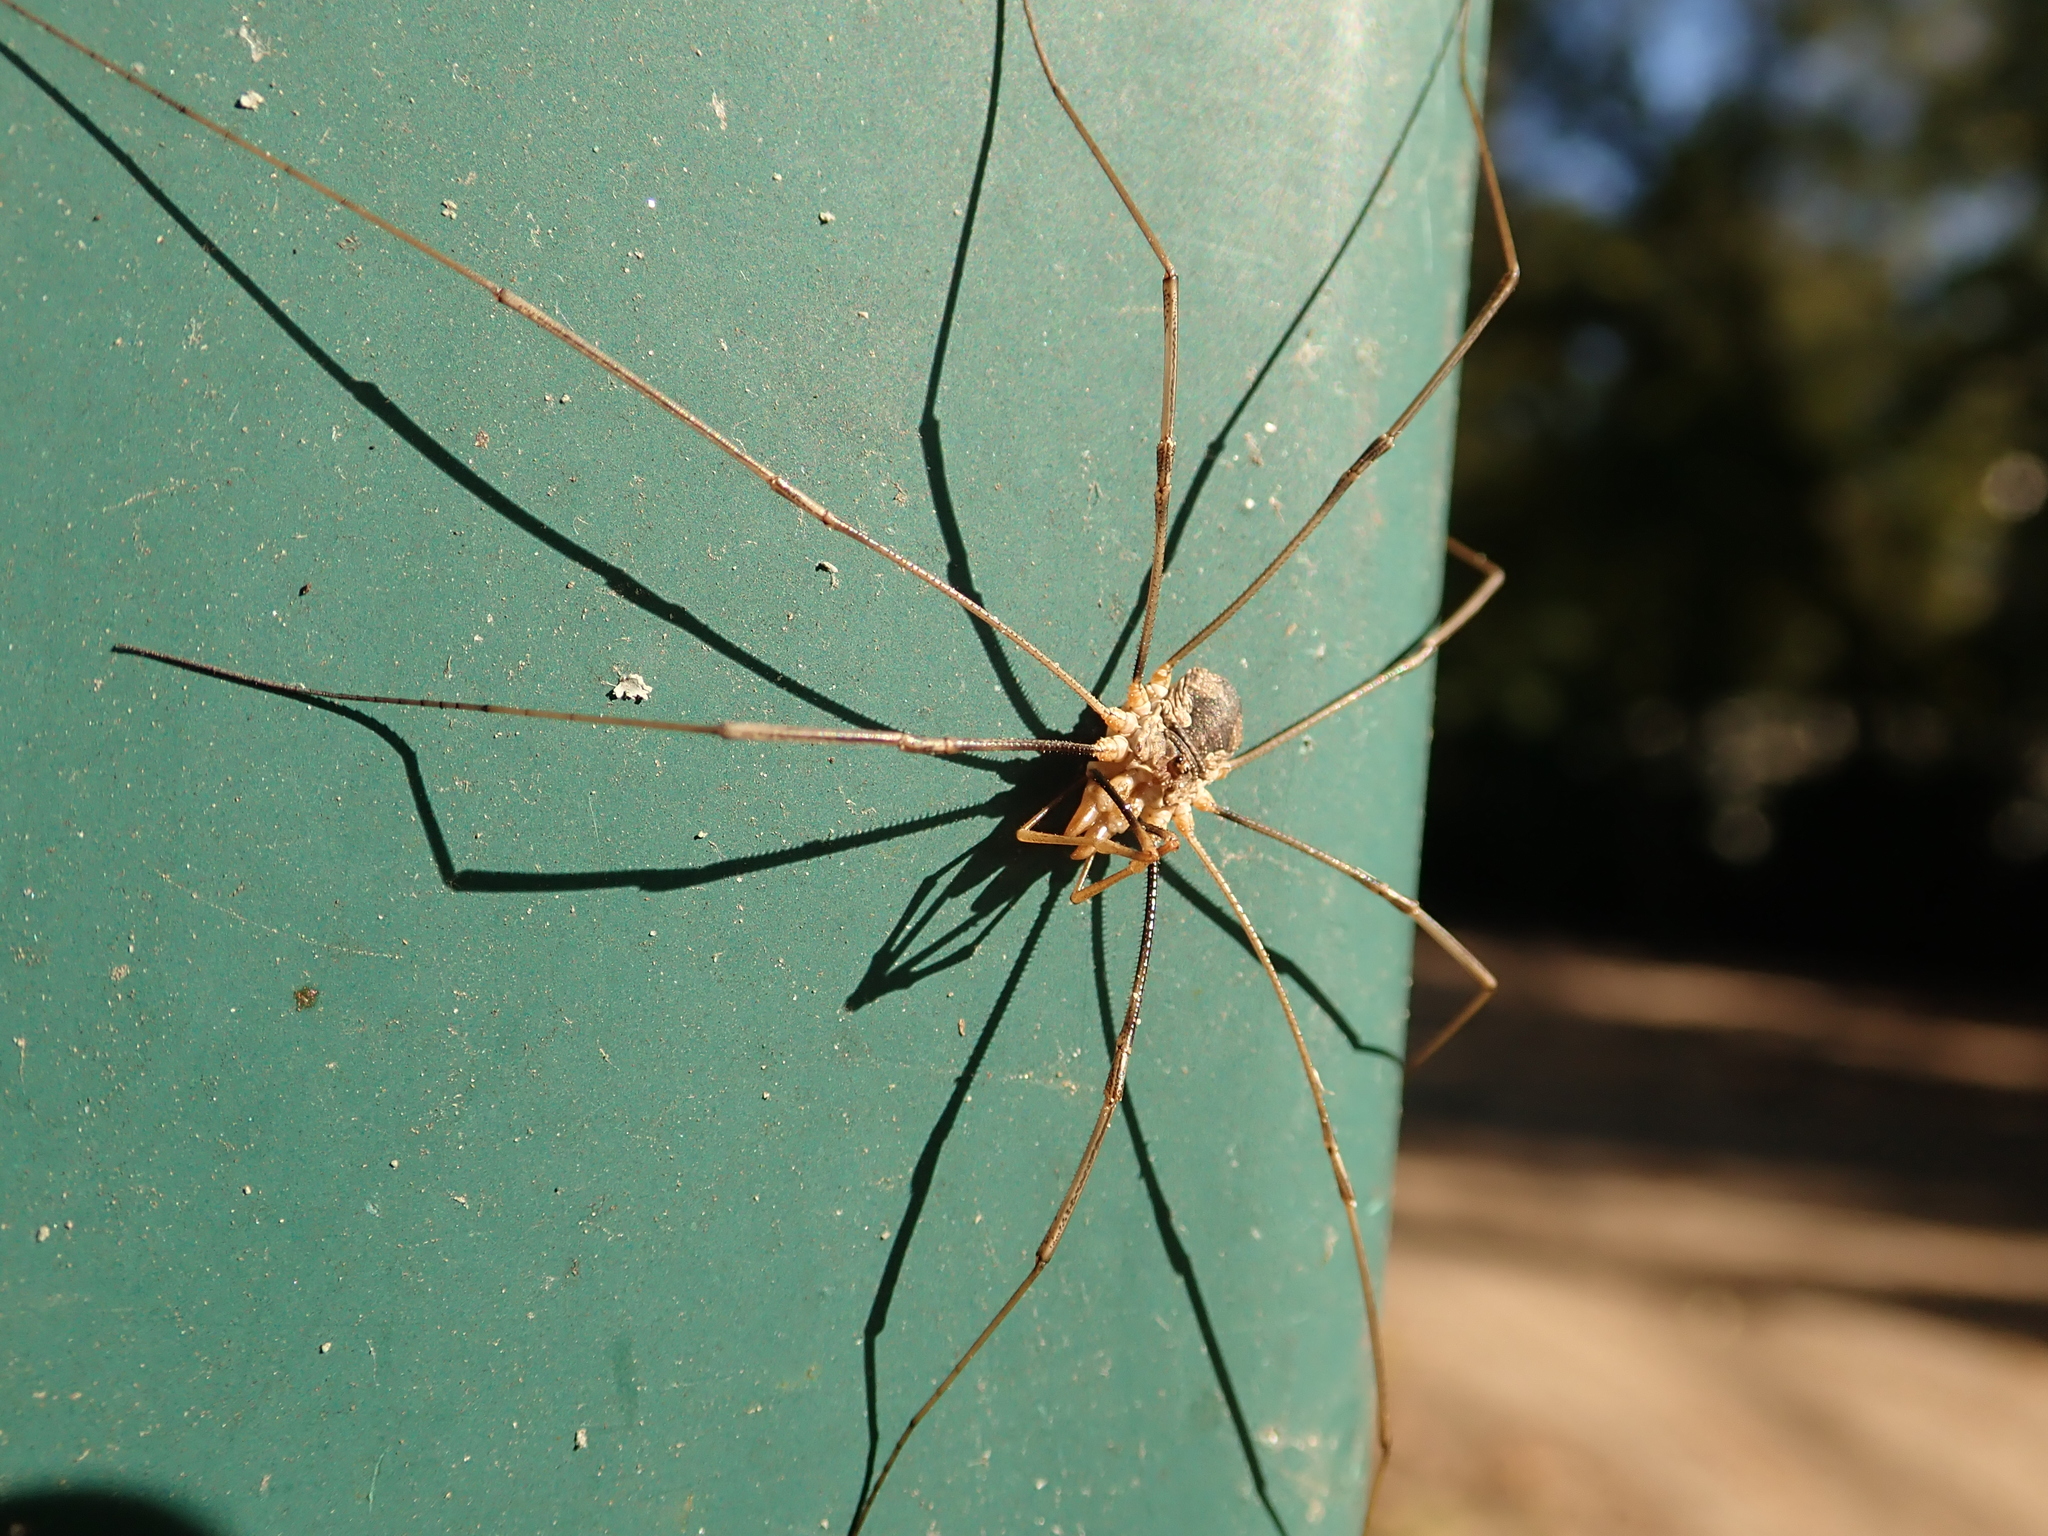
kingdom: Animalia
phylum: Arthropoda
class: Arachnida
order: Opiliones
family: Phalangiidae
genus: Phalangium
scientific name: Phalangium opilio
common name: Daddy longleg
